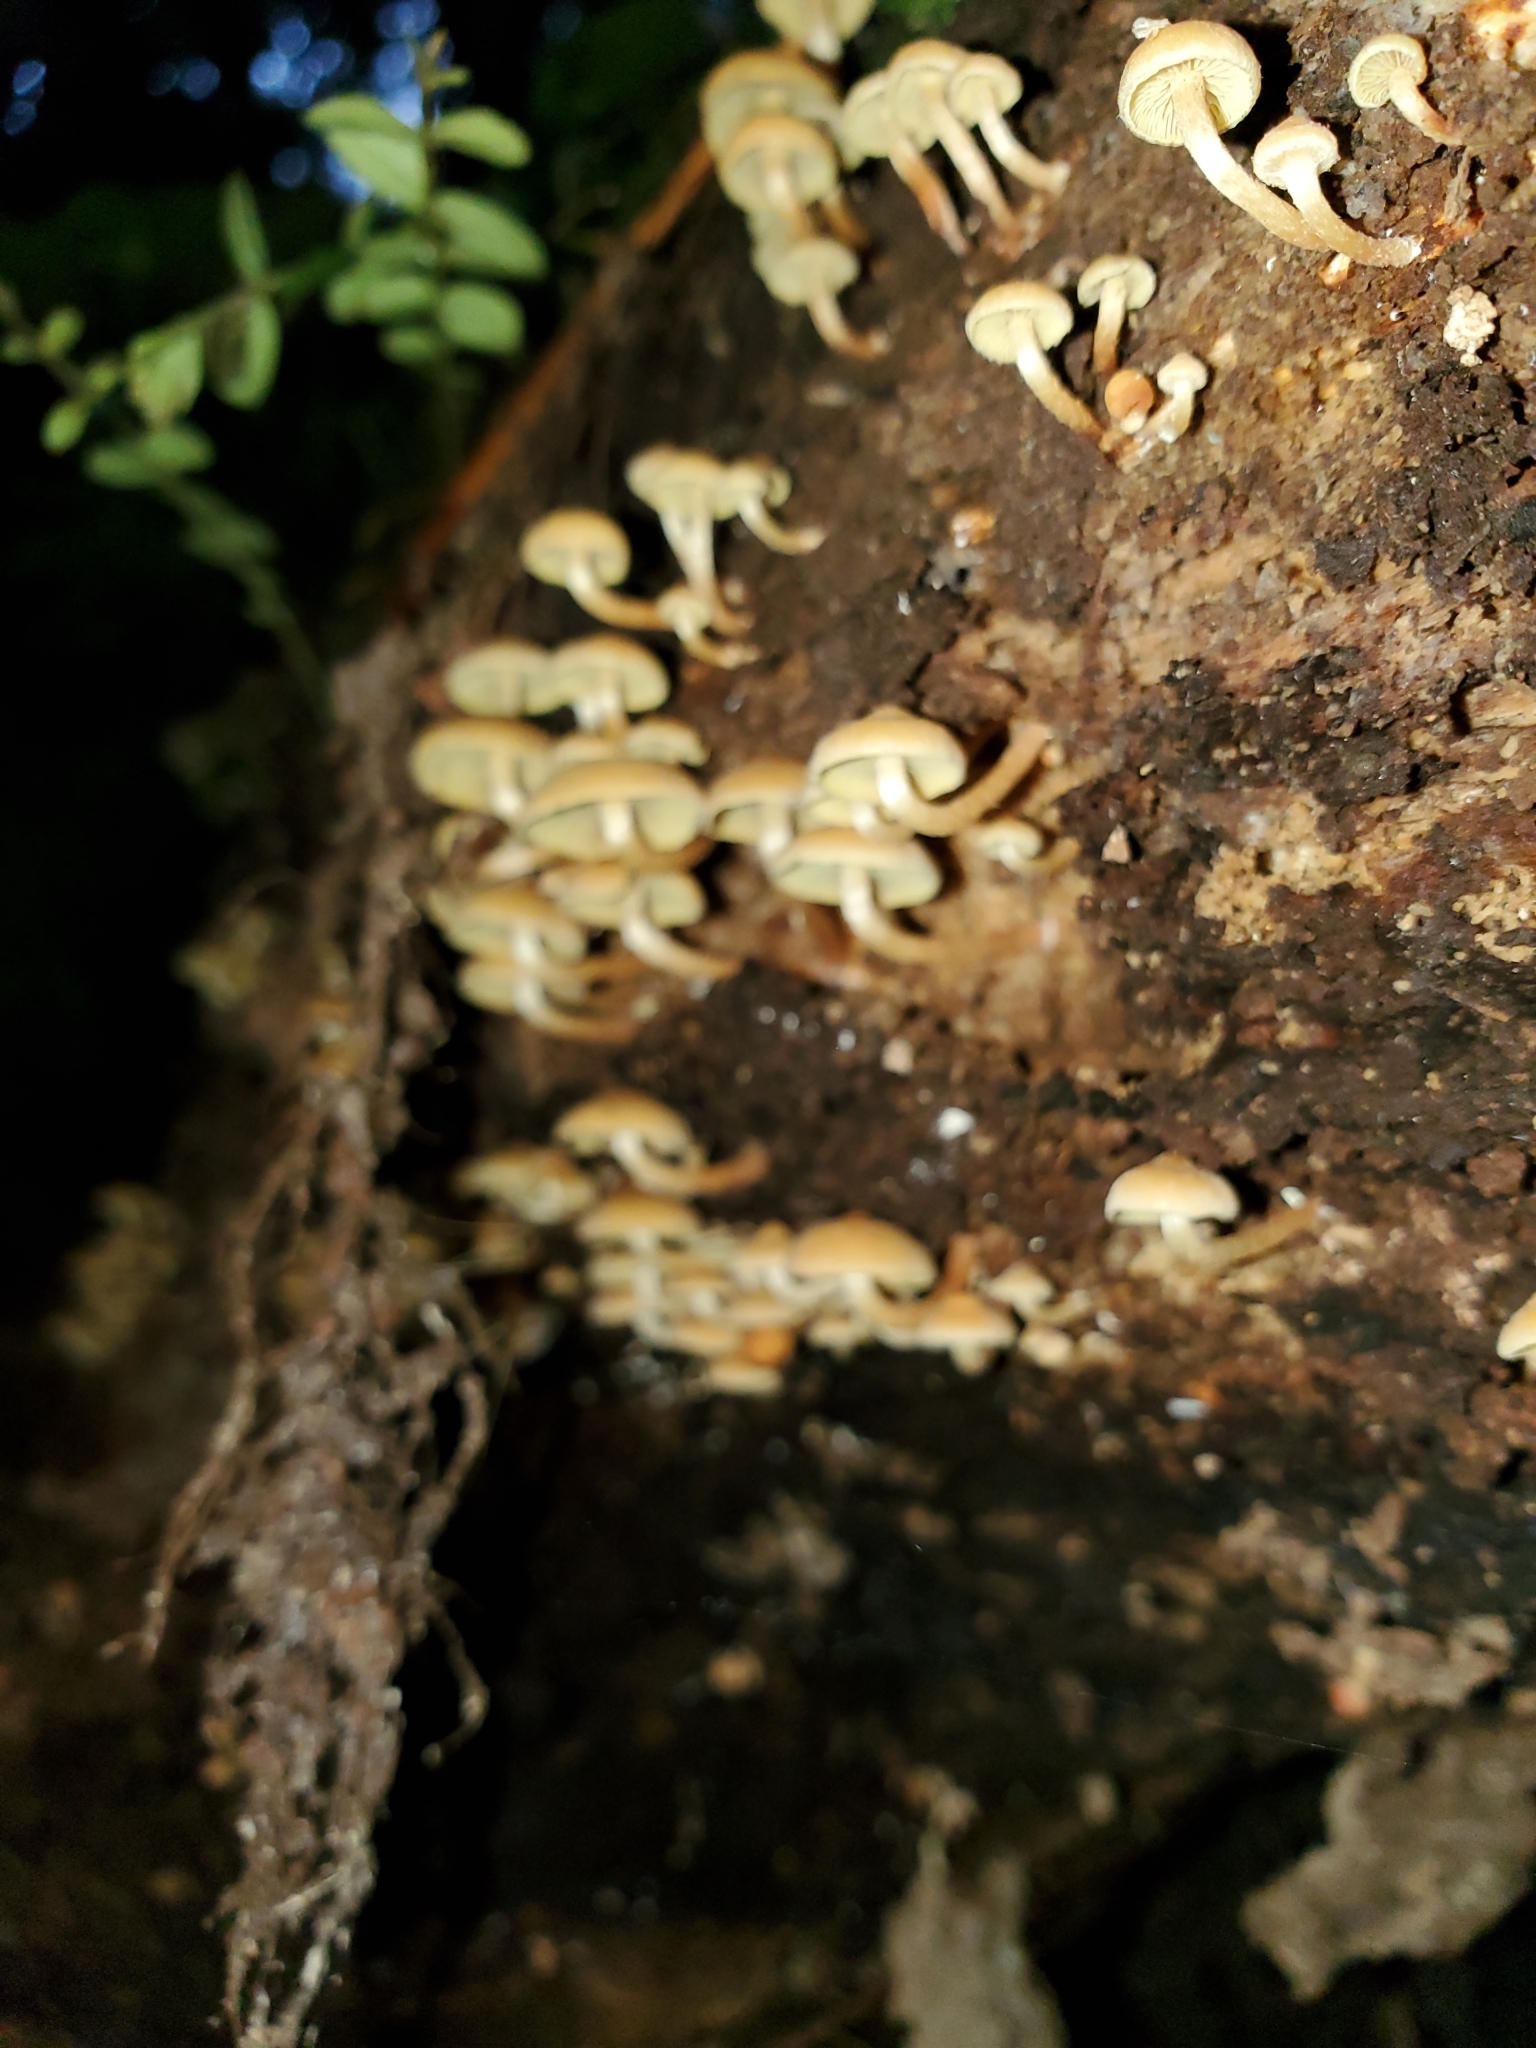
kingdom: Fungi
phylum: Basidiomycota
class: Agaricomycetes
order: Agaricales
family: Strophariaceae
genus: Hypholoma
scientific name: Hypholoma acutum
